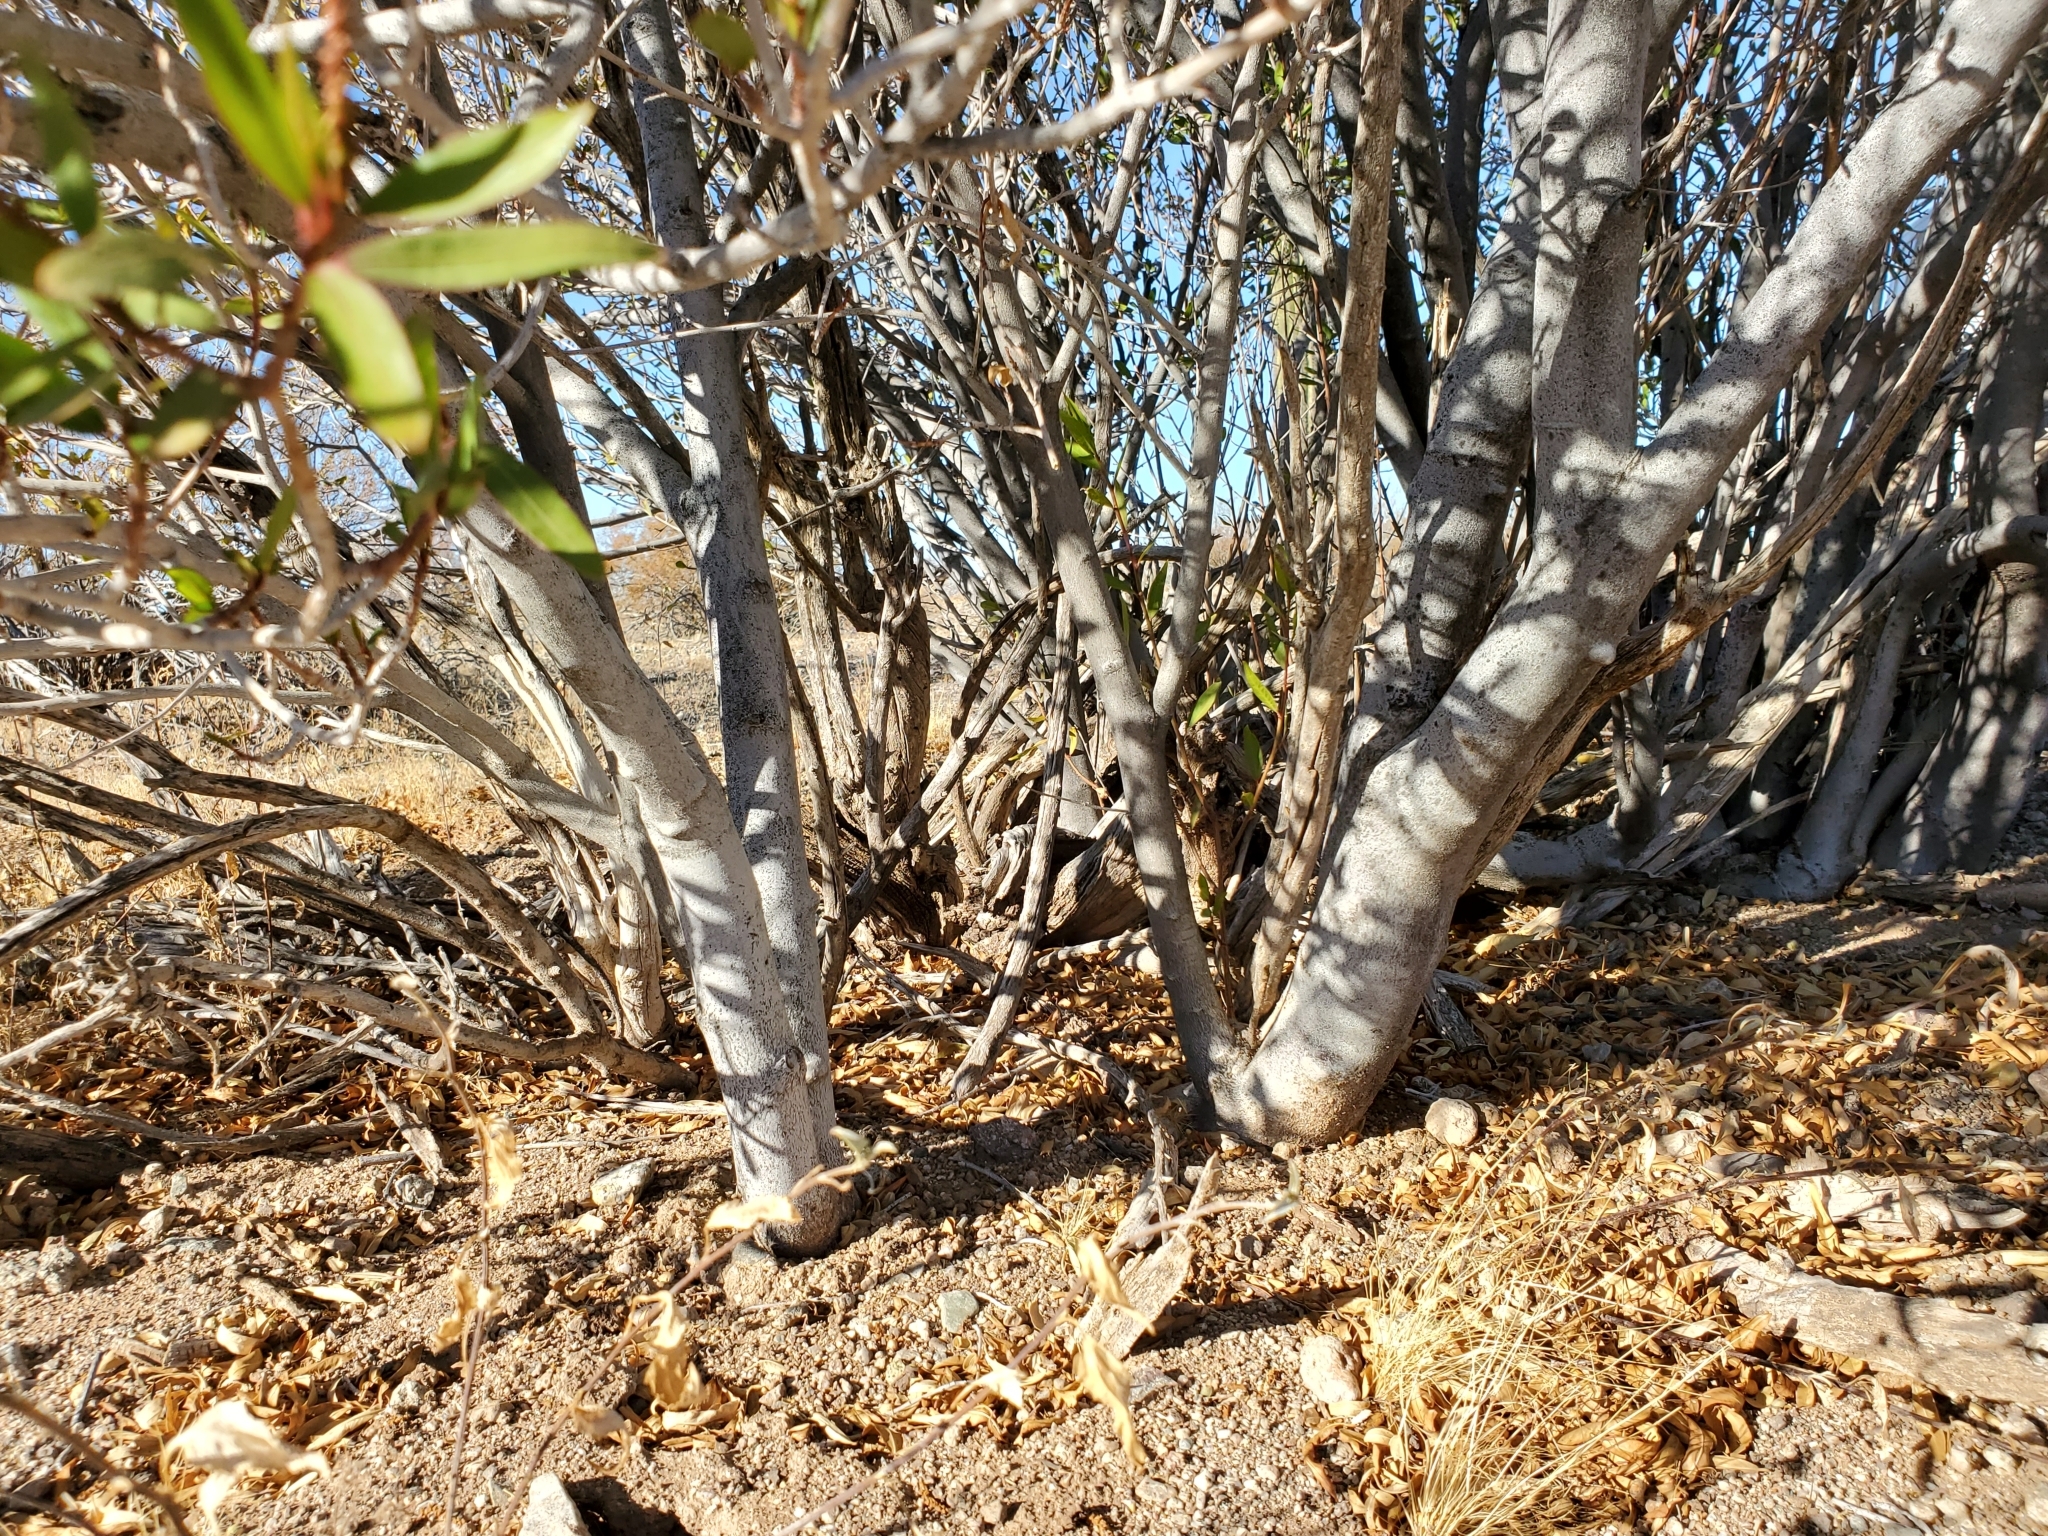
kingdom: Plantae
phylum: Tracheophyta
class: Magnoliopsida
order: Malpighiales
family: Euphorbiaceae
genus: Pleradenophora
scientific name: Pleradenophora bilocularis
